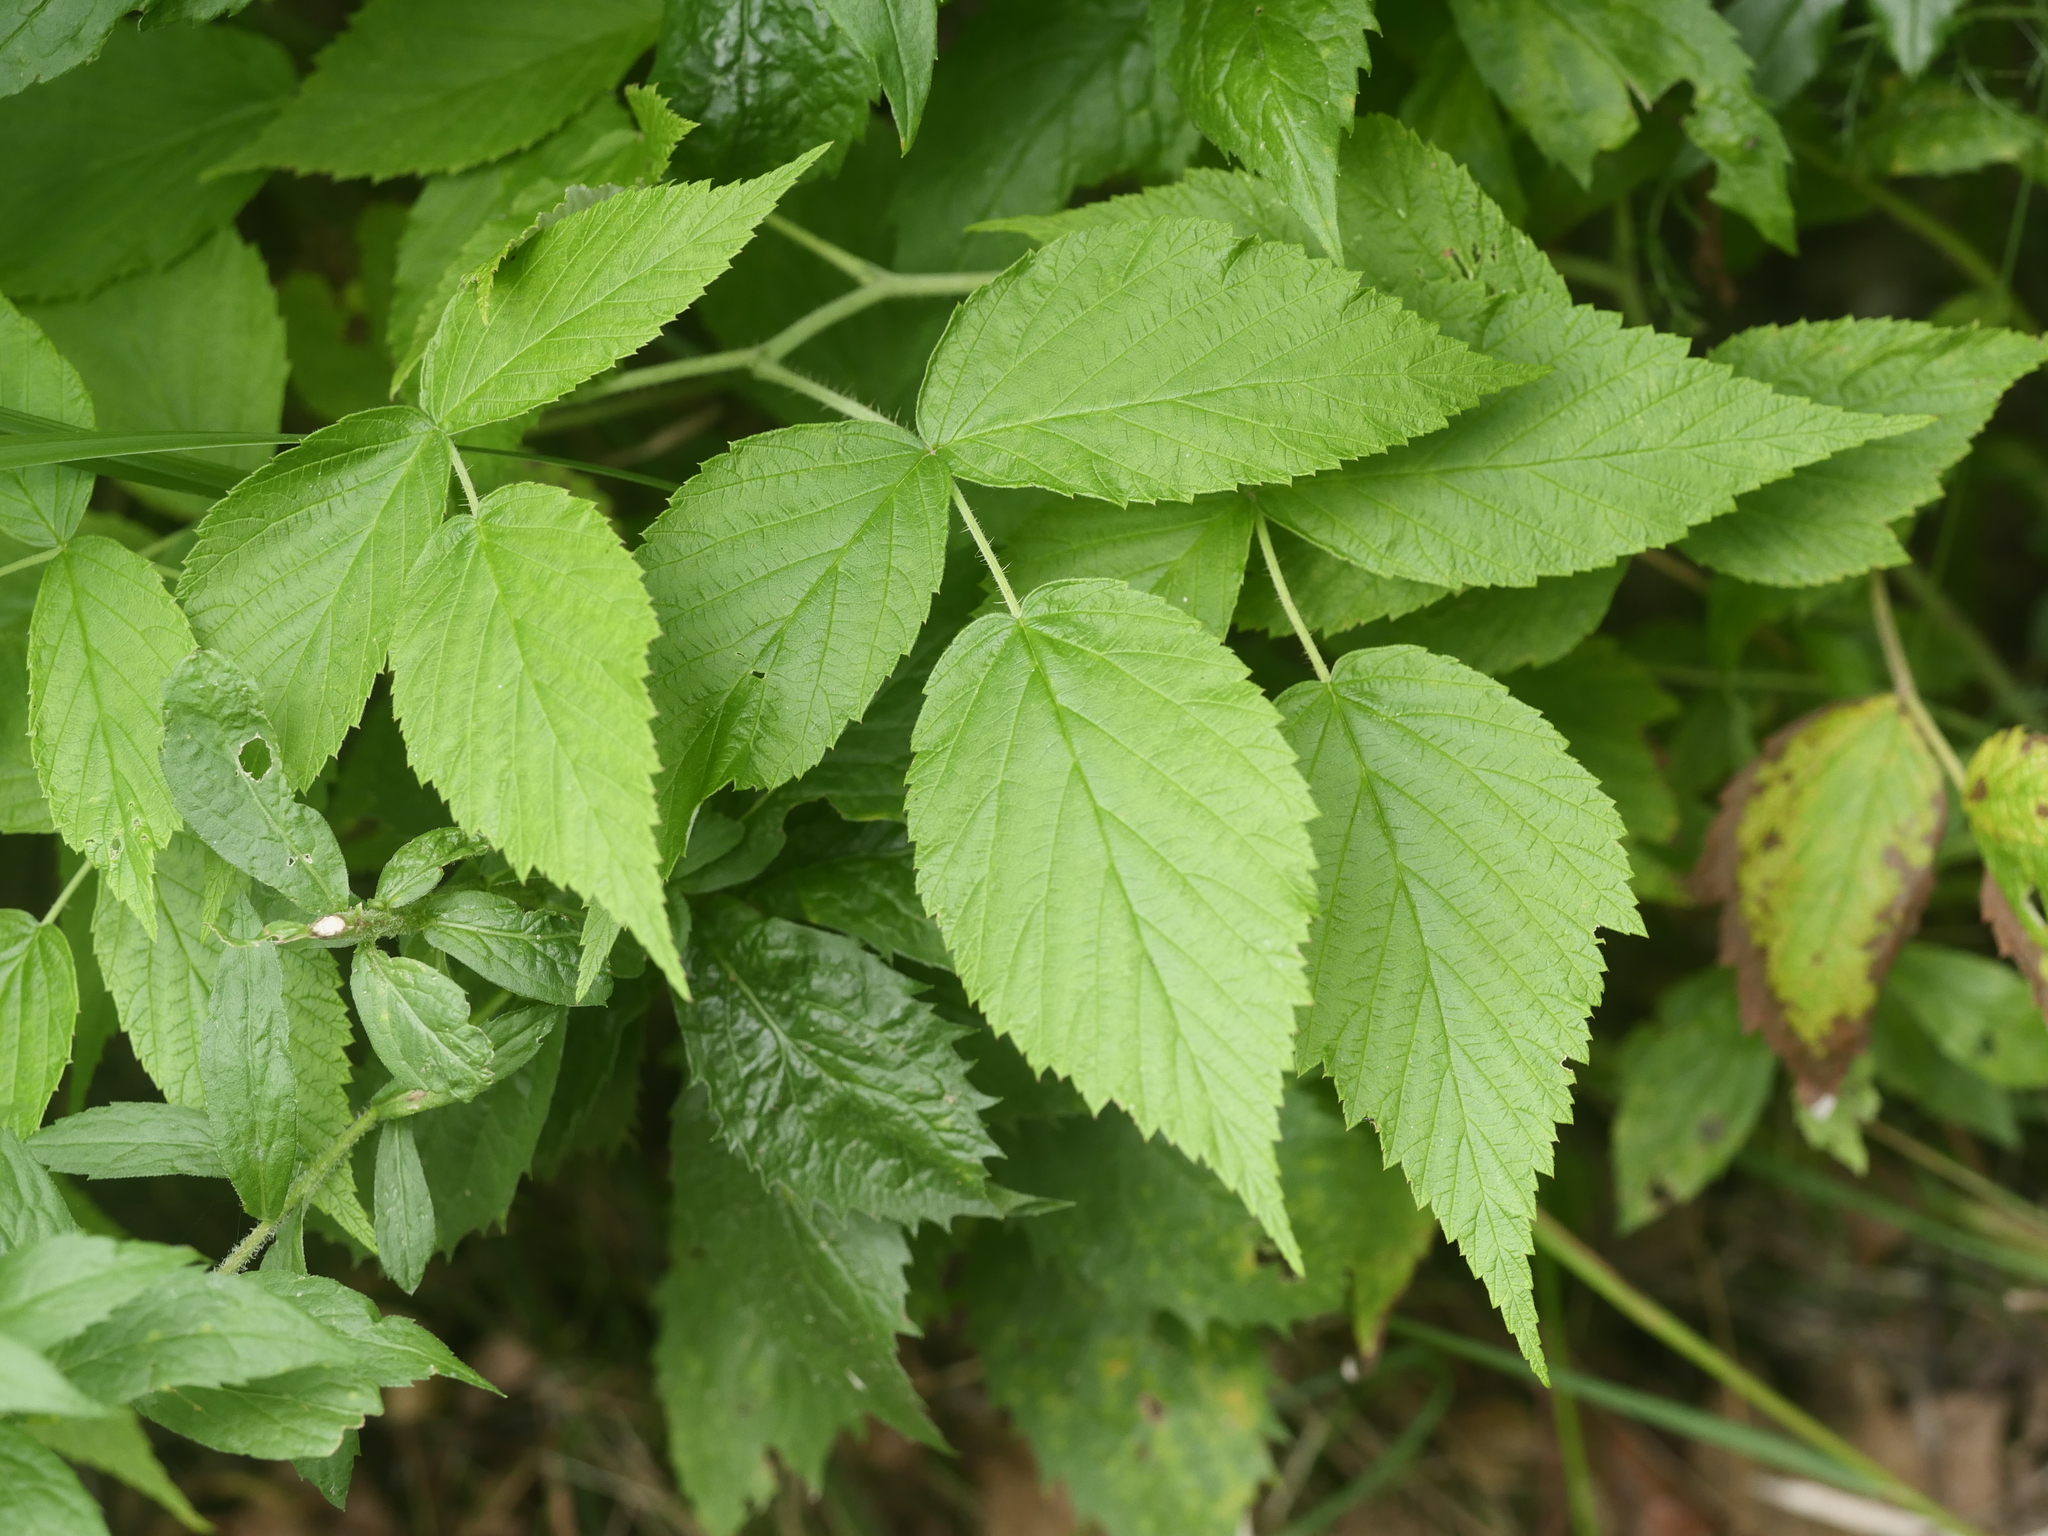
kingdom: Plantae
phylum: Tracheophyta
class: Magnoliopsida
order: Rosales
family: Rosaceae
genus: Rubus
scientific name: Rubus idaeus
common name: Raspberry
